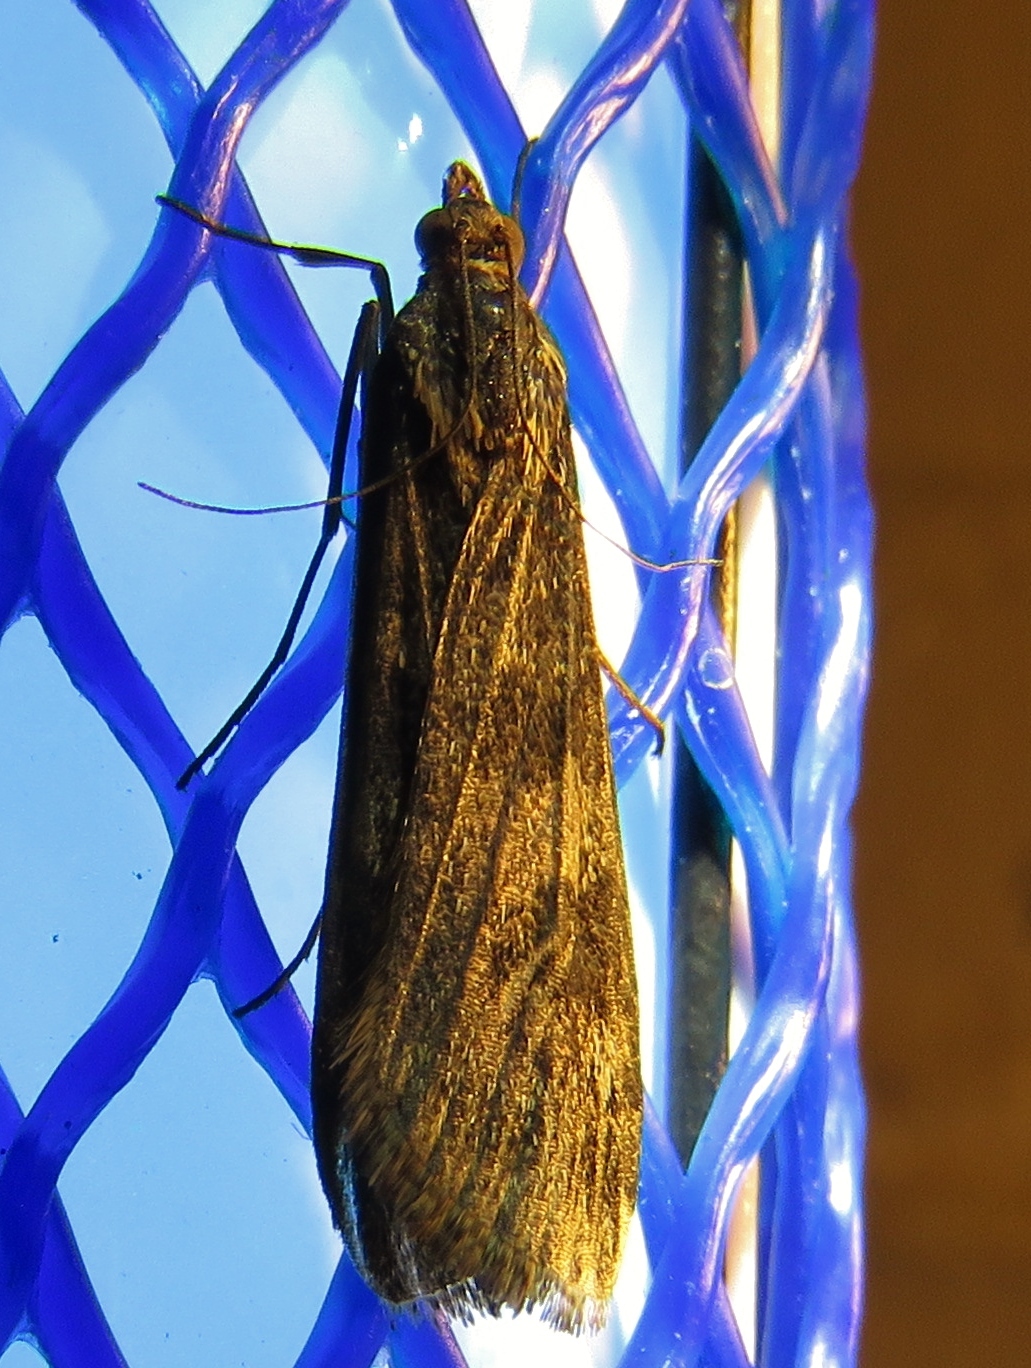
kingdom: Animalia
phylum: Arthropoda
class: Insecta
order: Lepidoptera
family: Crambidae
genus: Nomophila
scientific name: Nomophila nearctica
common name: American rush veneer
